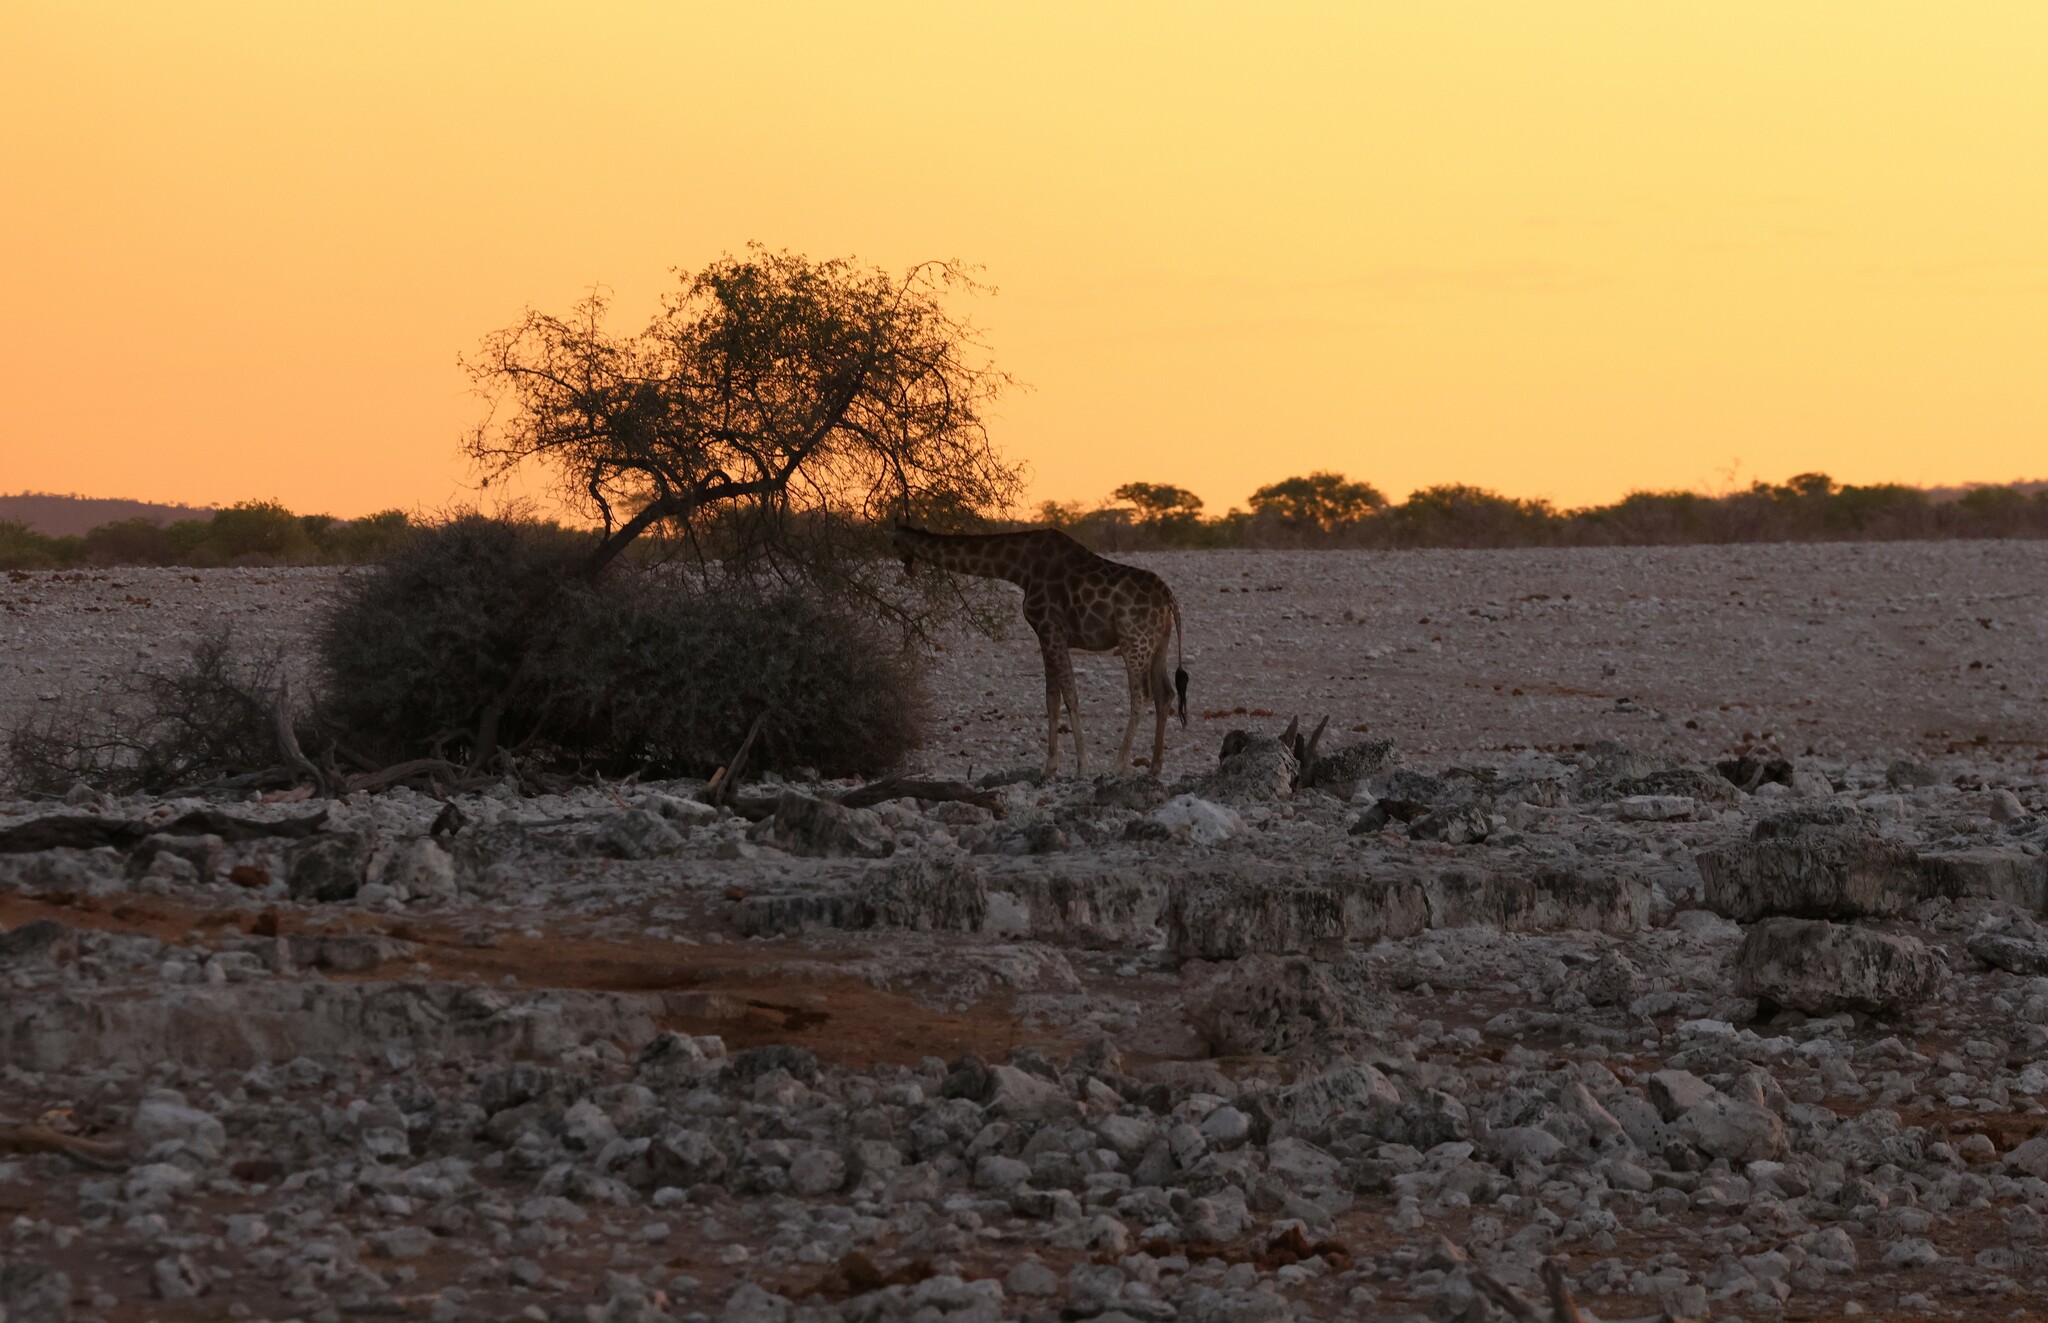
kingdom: Animalia
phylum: Chordata
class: Mammalia
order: Artiodactyla
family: Giraffidae
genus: Giraffa
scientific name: Giraffa giraffa
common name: Southern giraffe
